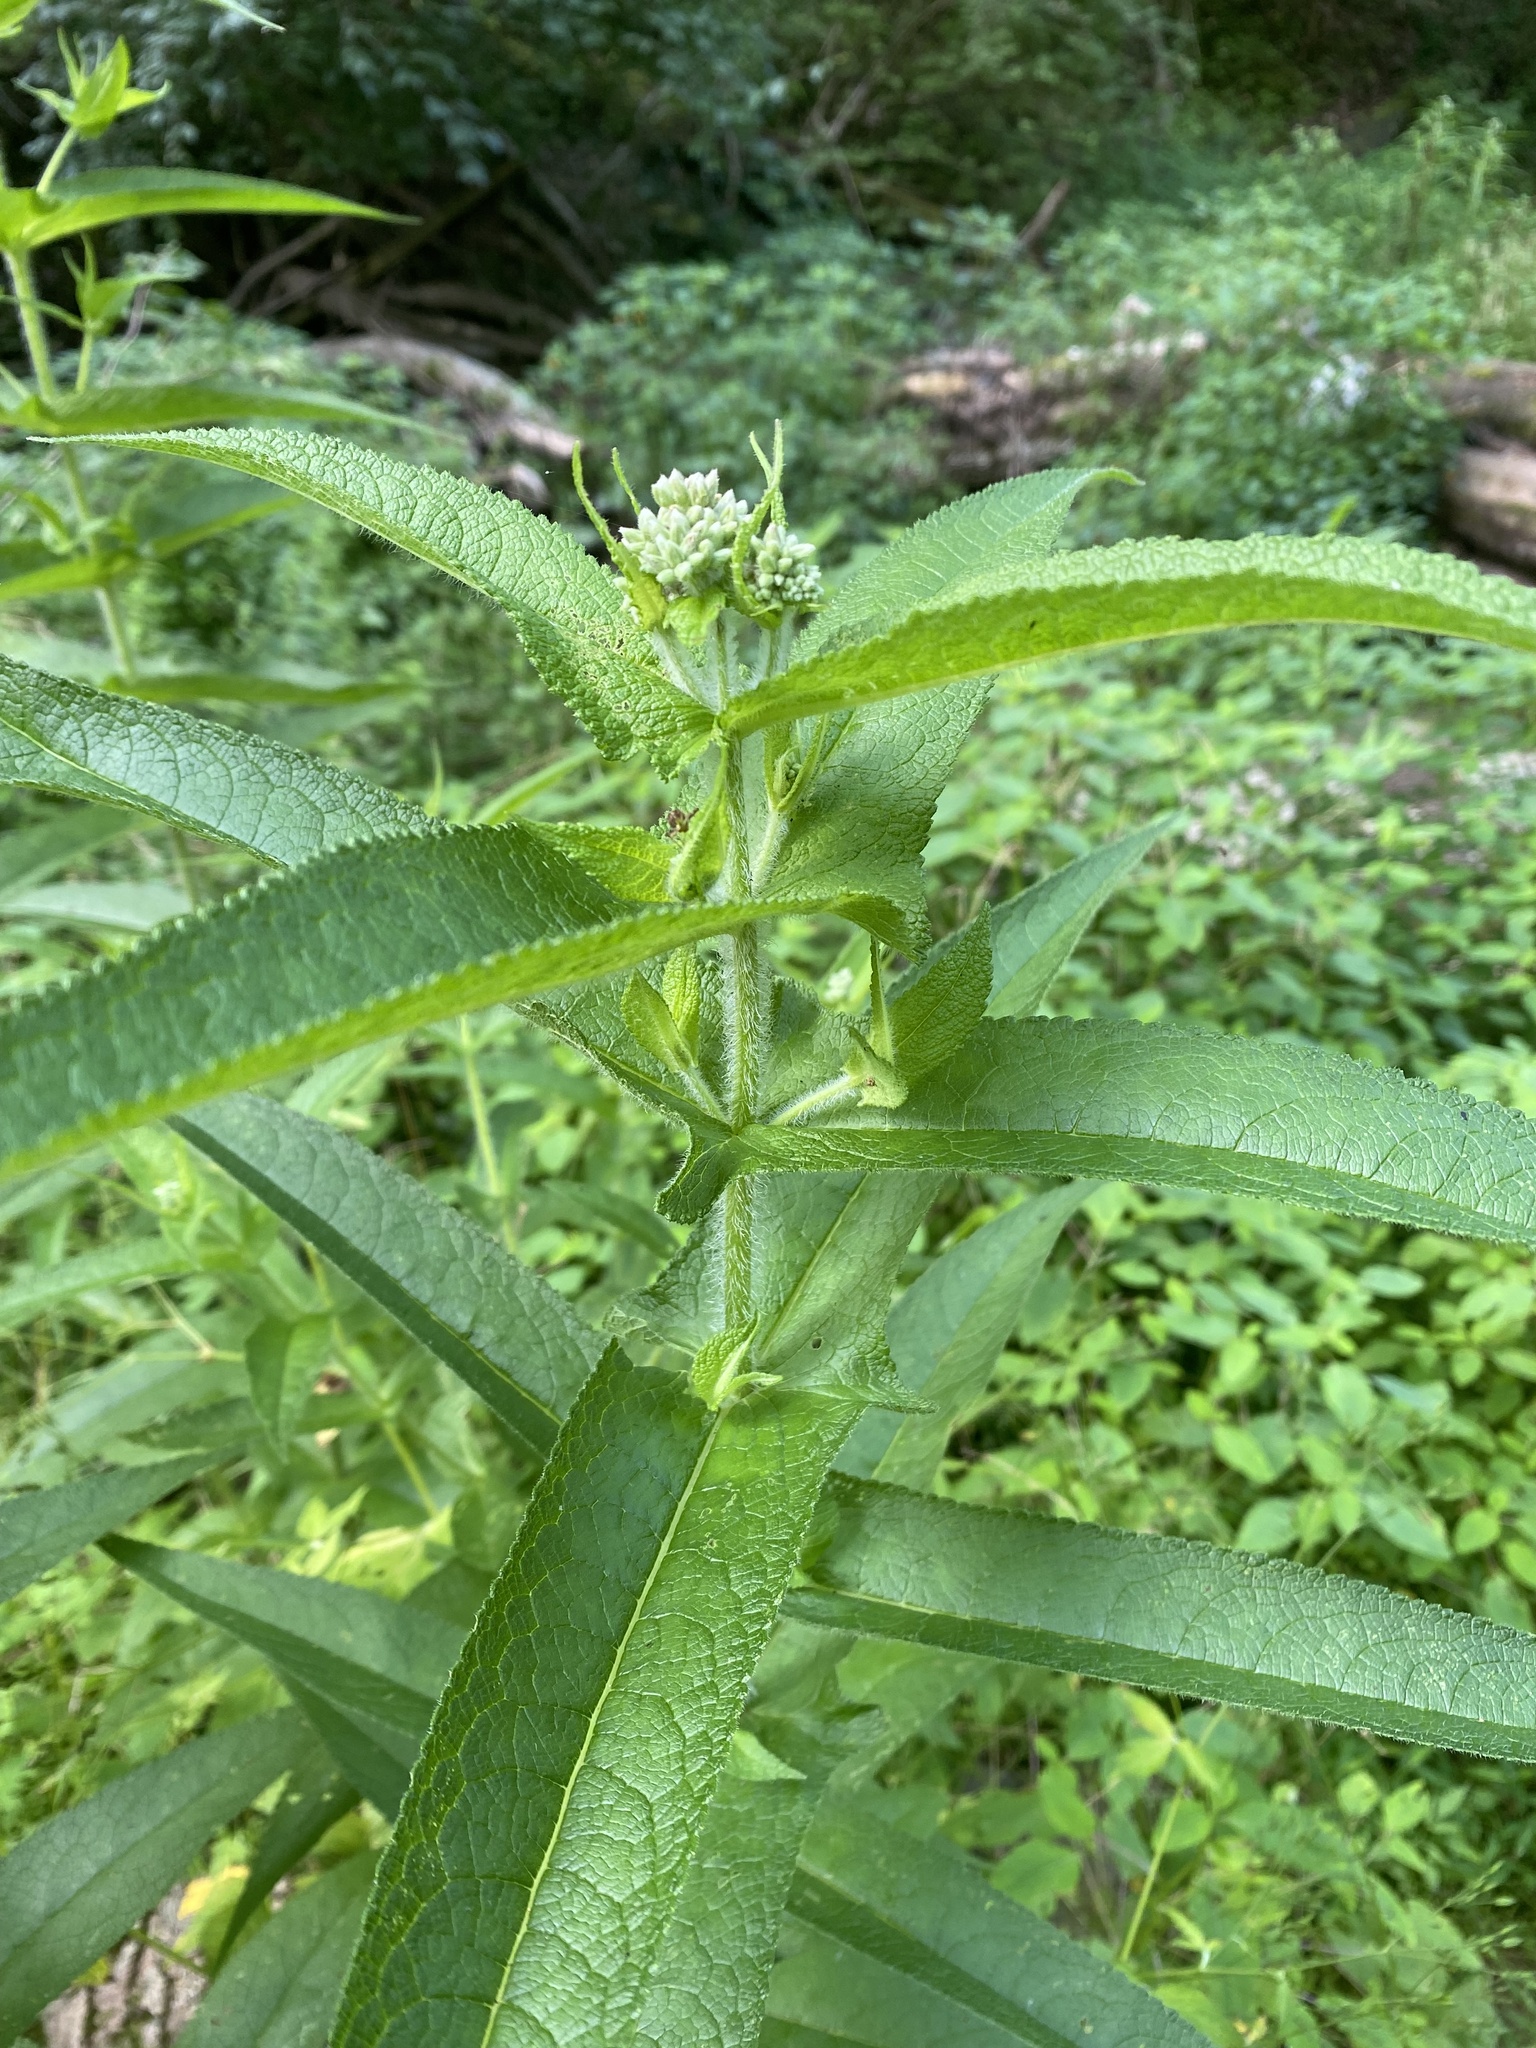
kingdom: Plantae
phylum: Tracheophyta
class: Magnoliopsida
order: Asterales
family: Asteraceae
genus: Eupatorium
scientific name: Eupatorium perfoliatum
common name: Boneset
